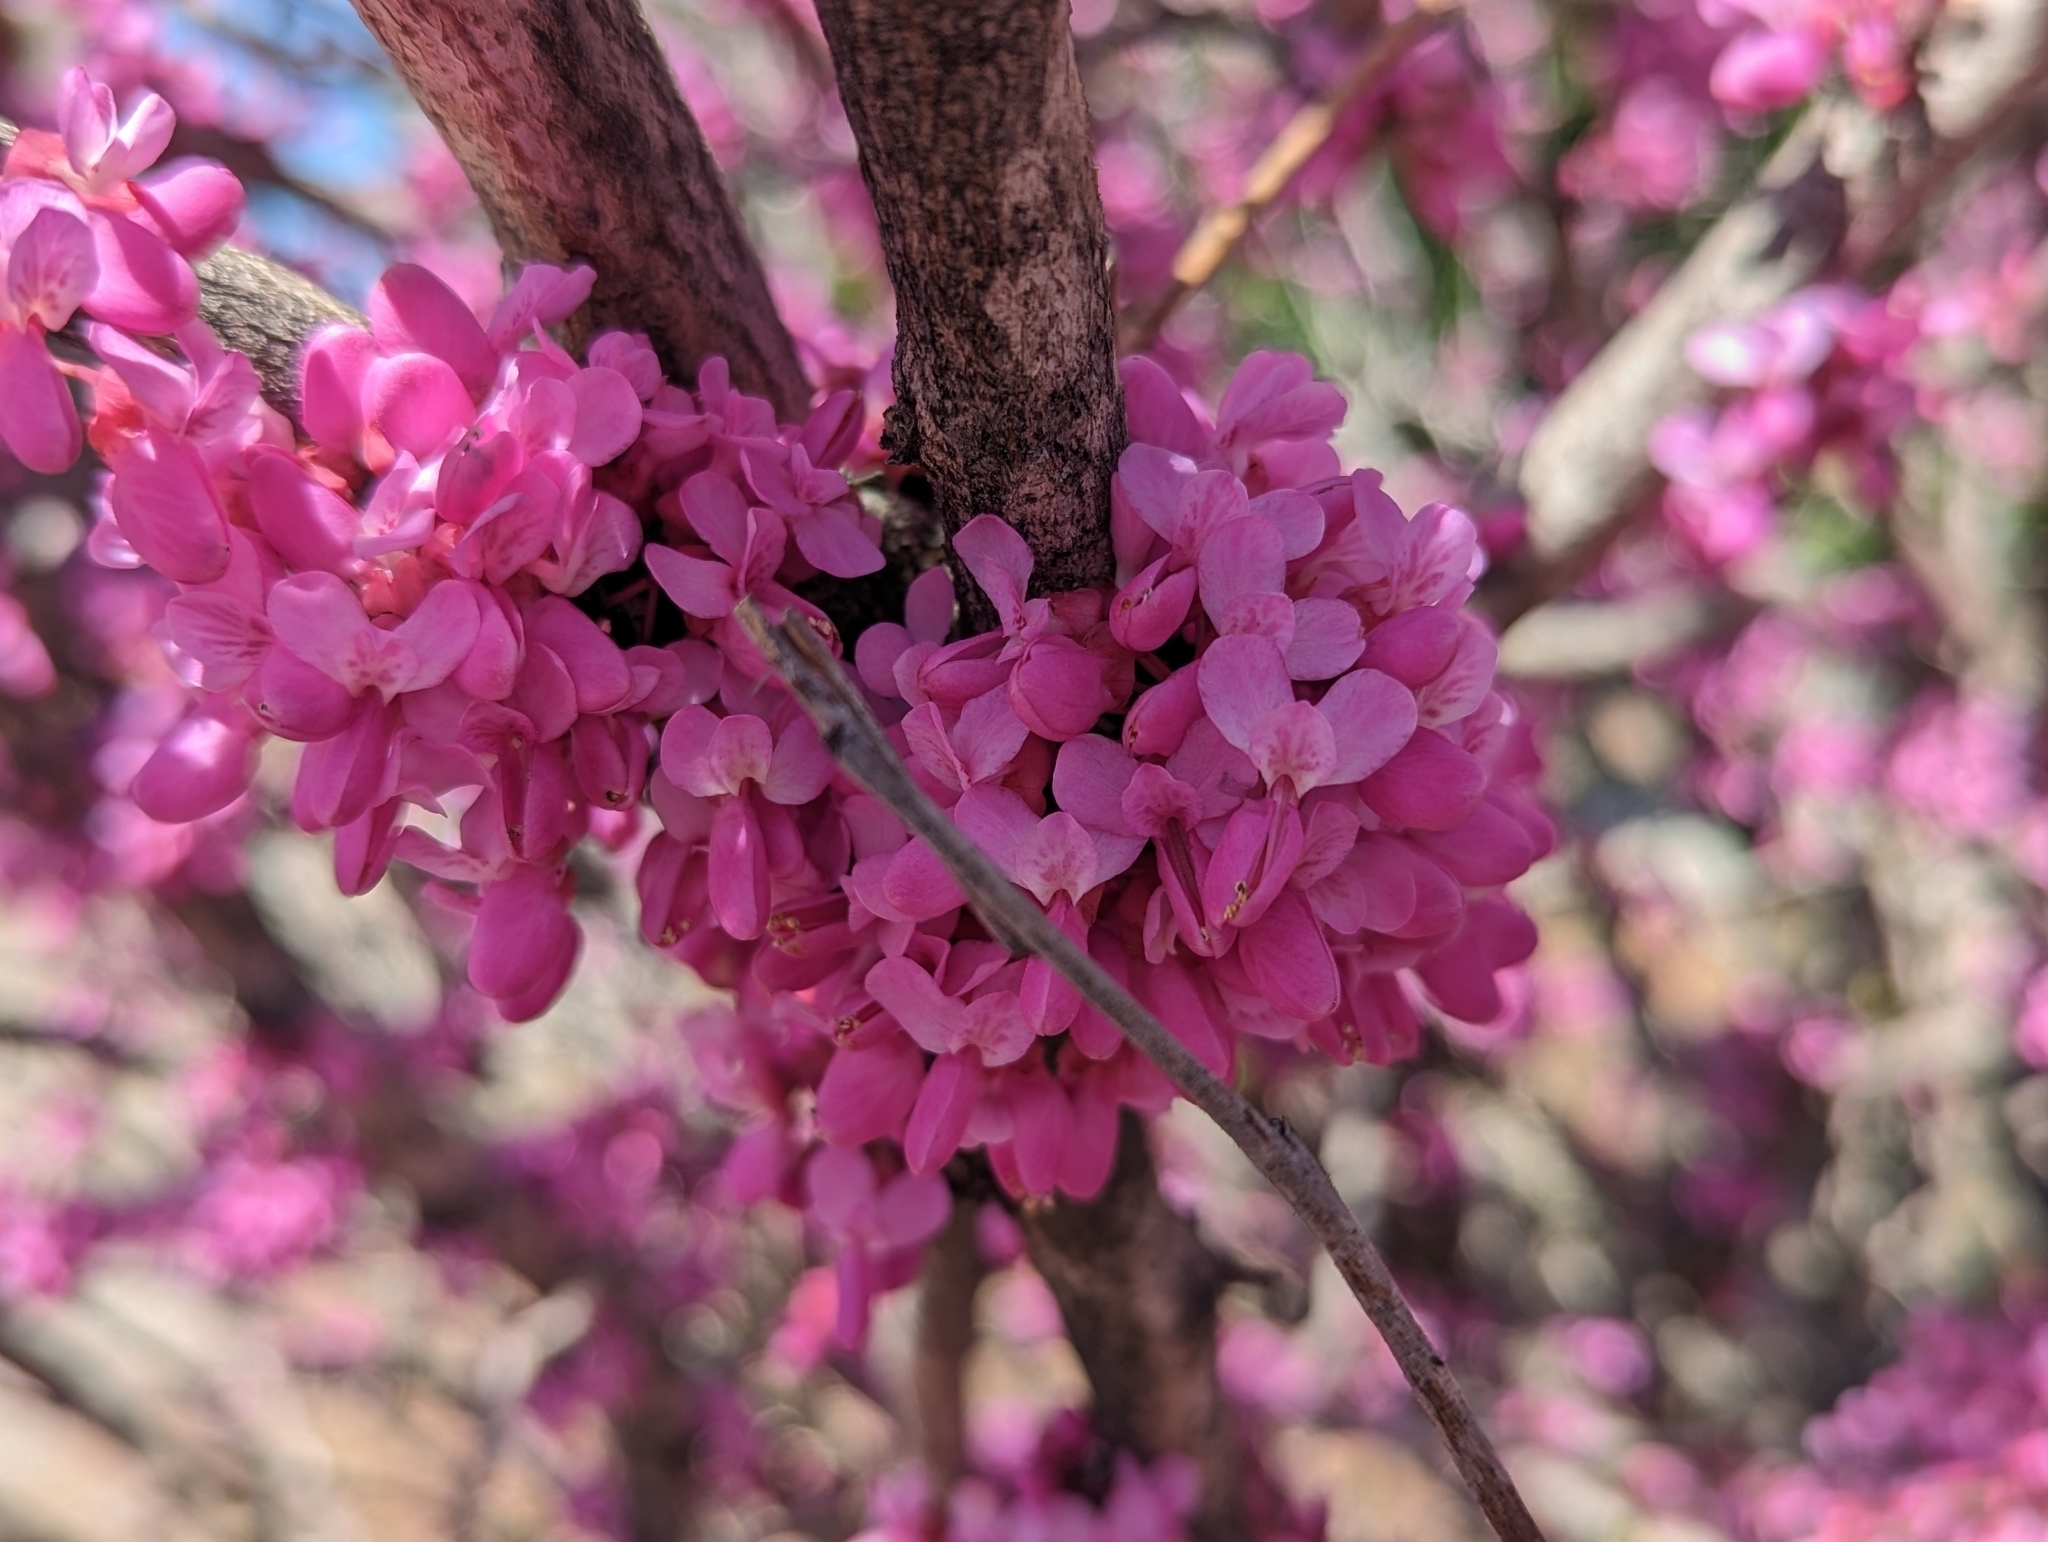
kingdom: Plantae
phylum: Tracheophyta
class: Magnoliopsida
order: Fabales
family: Fabaceae
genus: Cercis
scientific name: Cercis occidentalis
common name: California redbud
